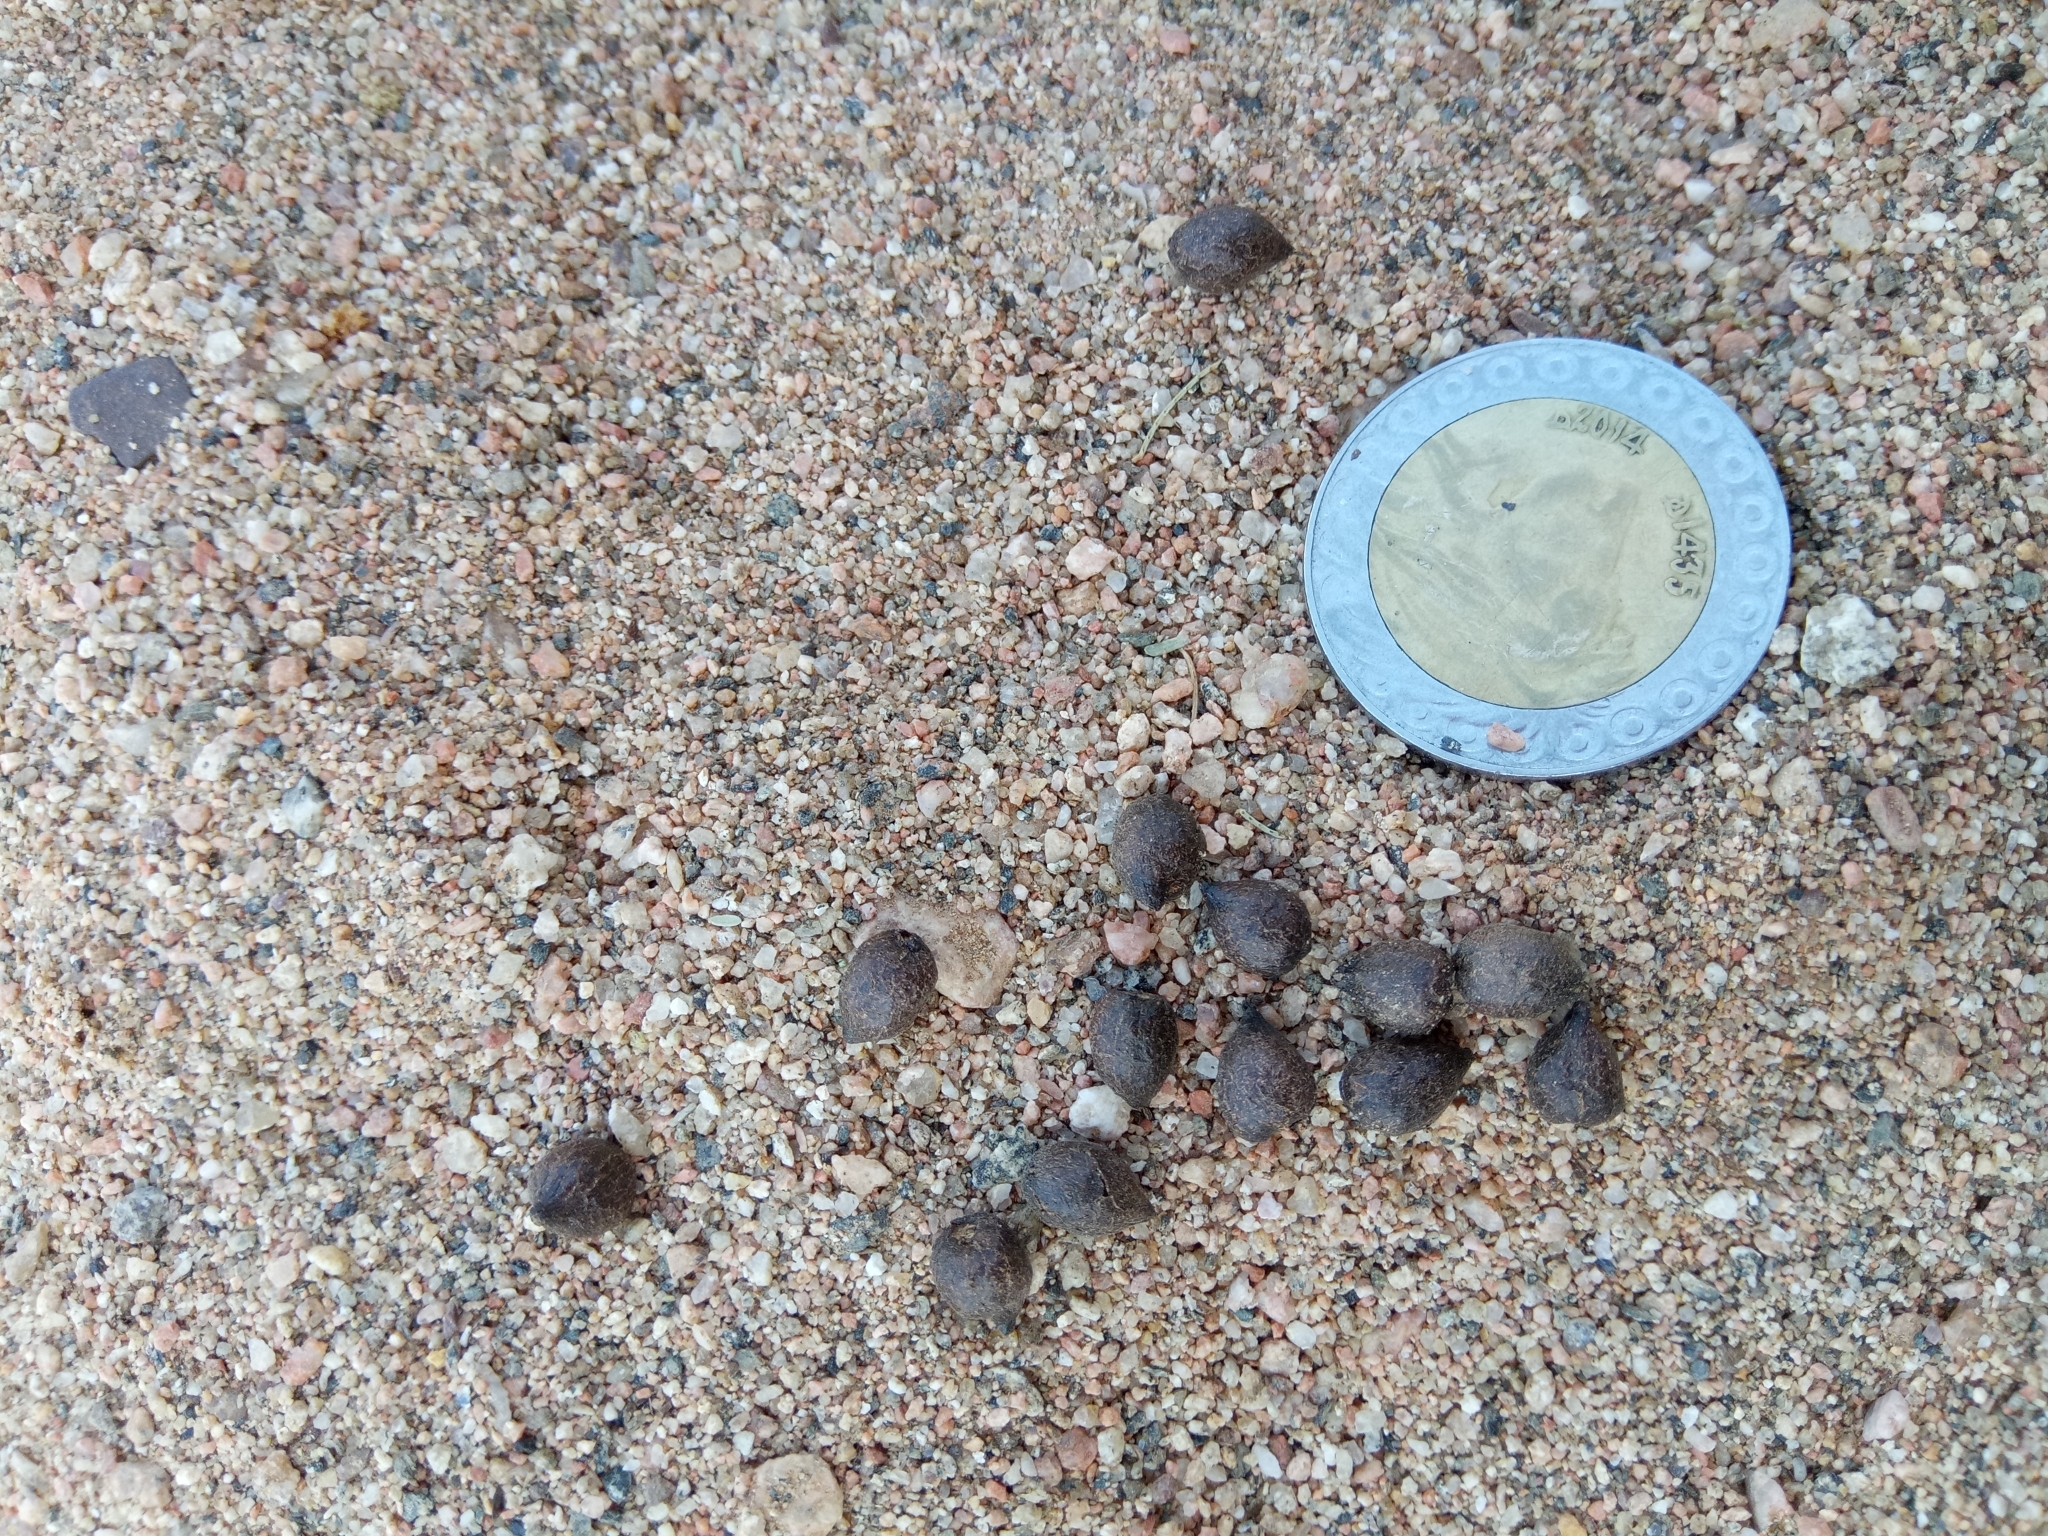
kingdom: Animalia
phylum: Chordata
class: Mammalia
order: Artiodactyla
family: Bovidae
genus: Gazella
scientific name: Gazella dorcas
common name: Dorcas gazelle
